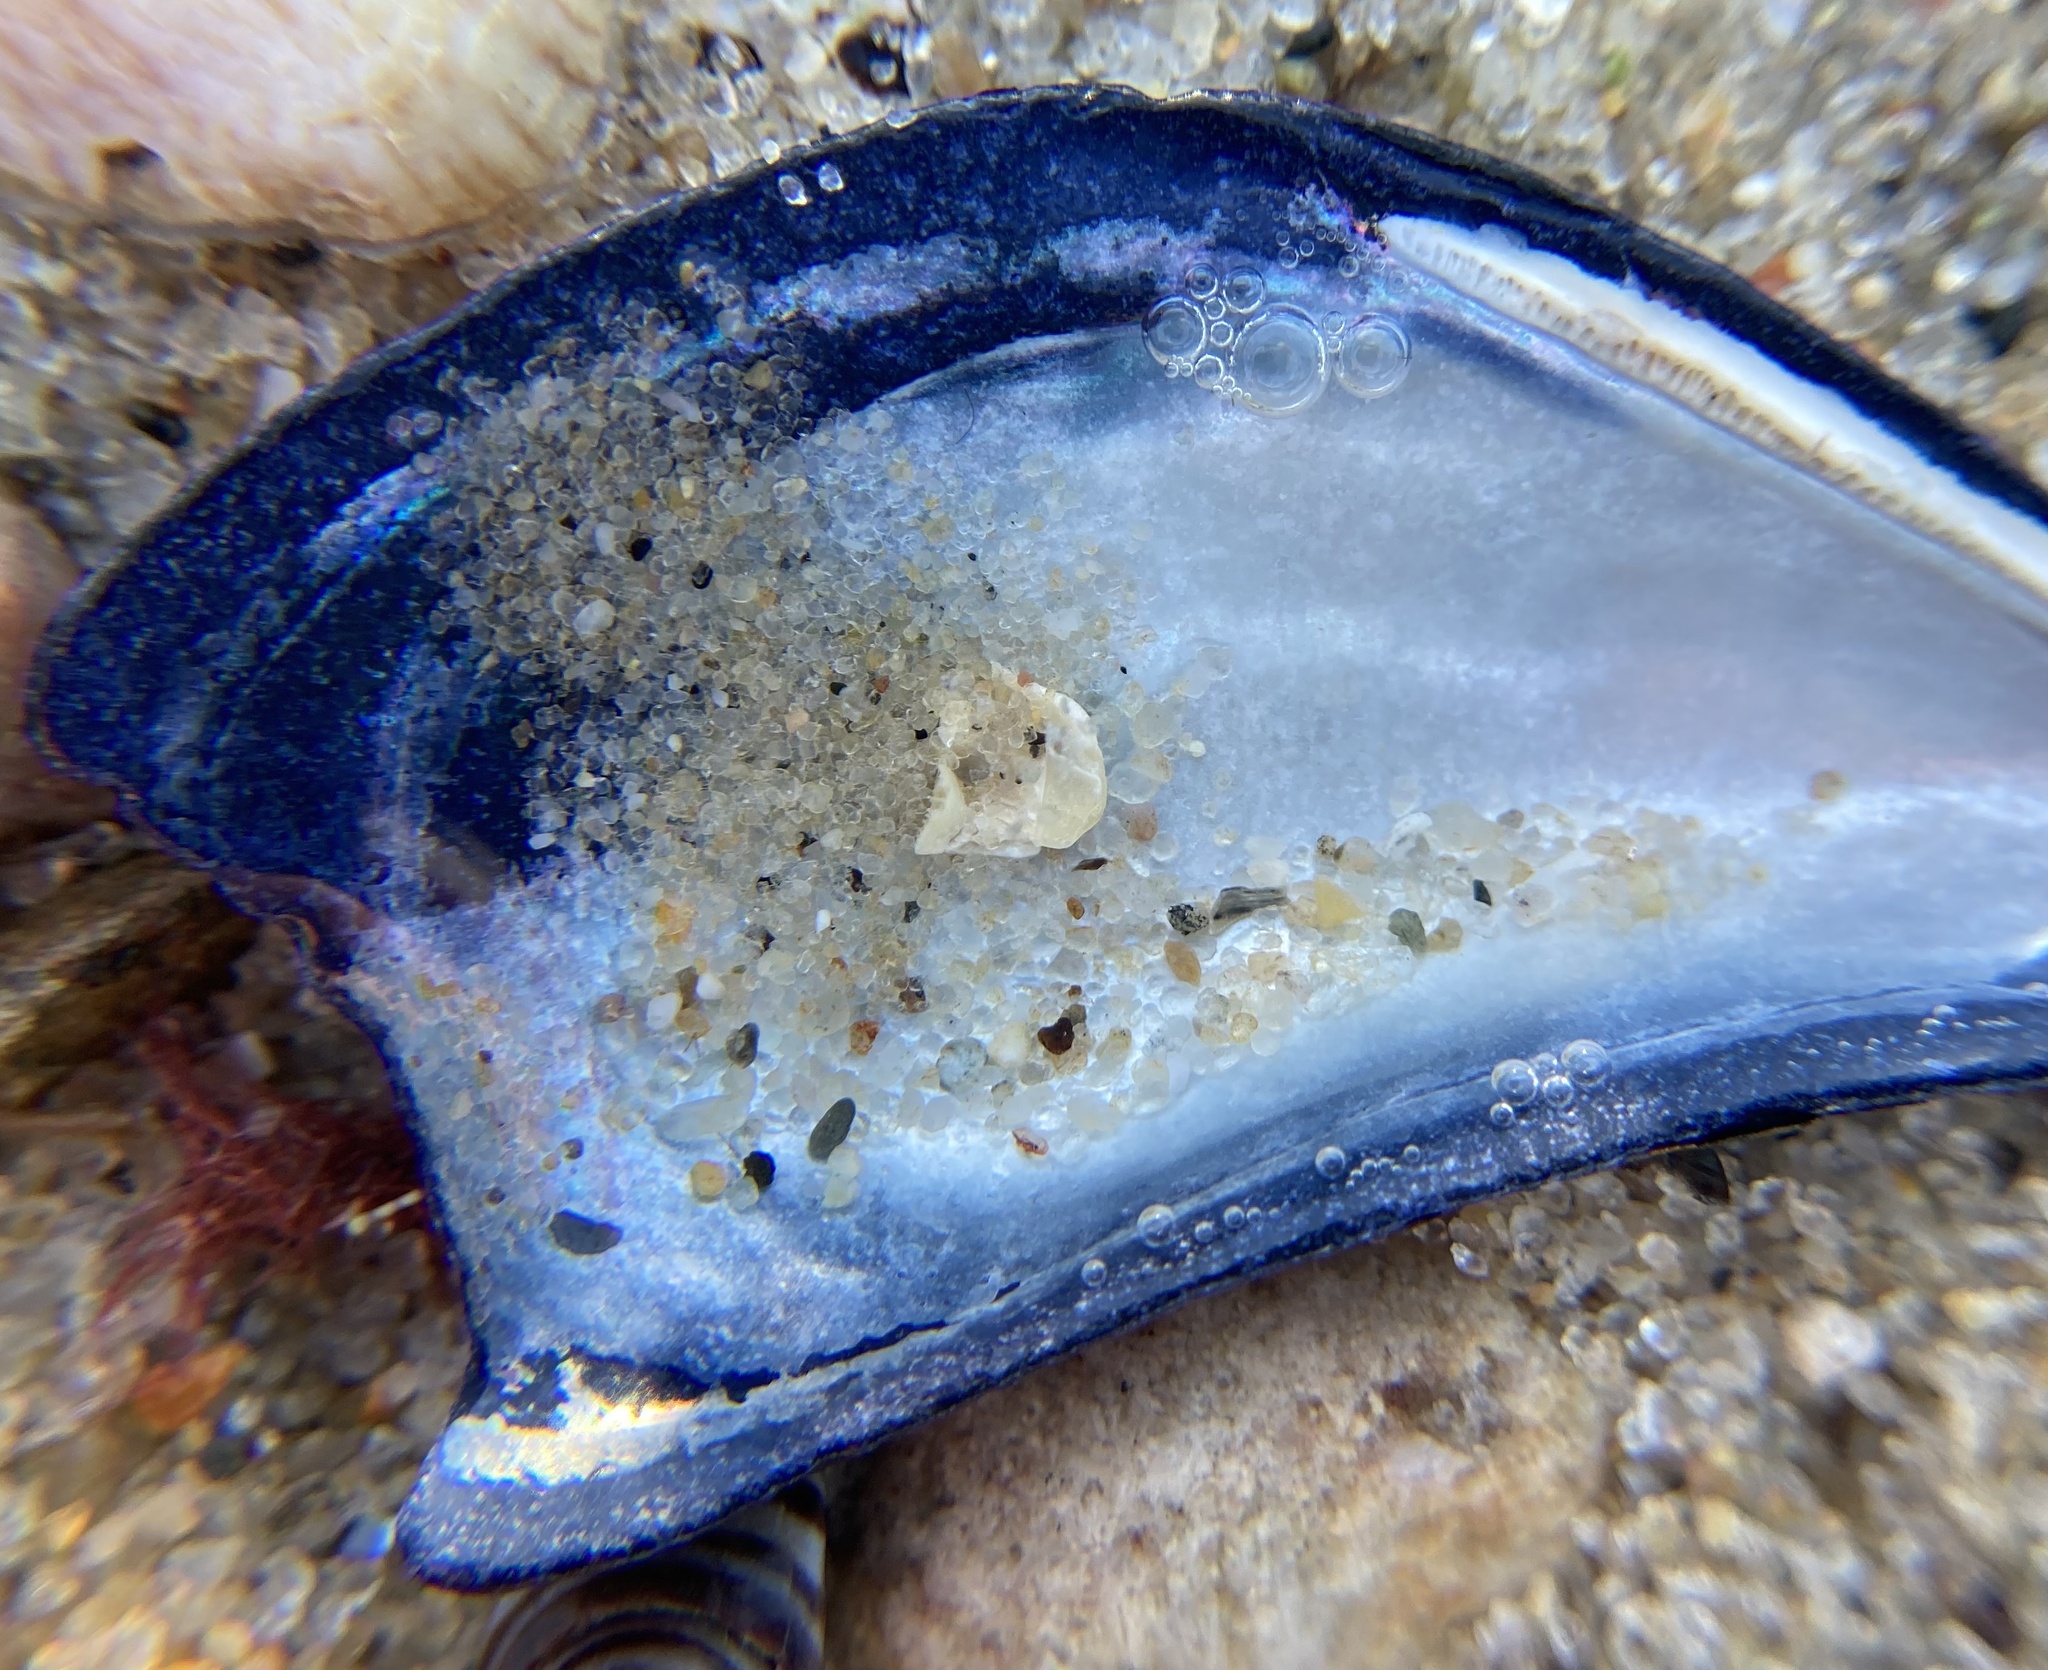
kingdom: Animalia
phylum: Mollusca
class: Bivalvia
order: Mytilida
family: Mytilidae
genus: Mytilus
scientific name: Mytilus edulis
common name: Blue mussel
